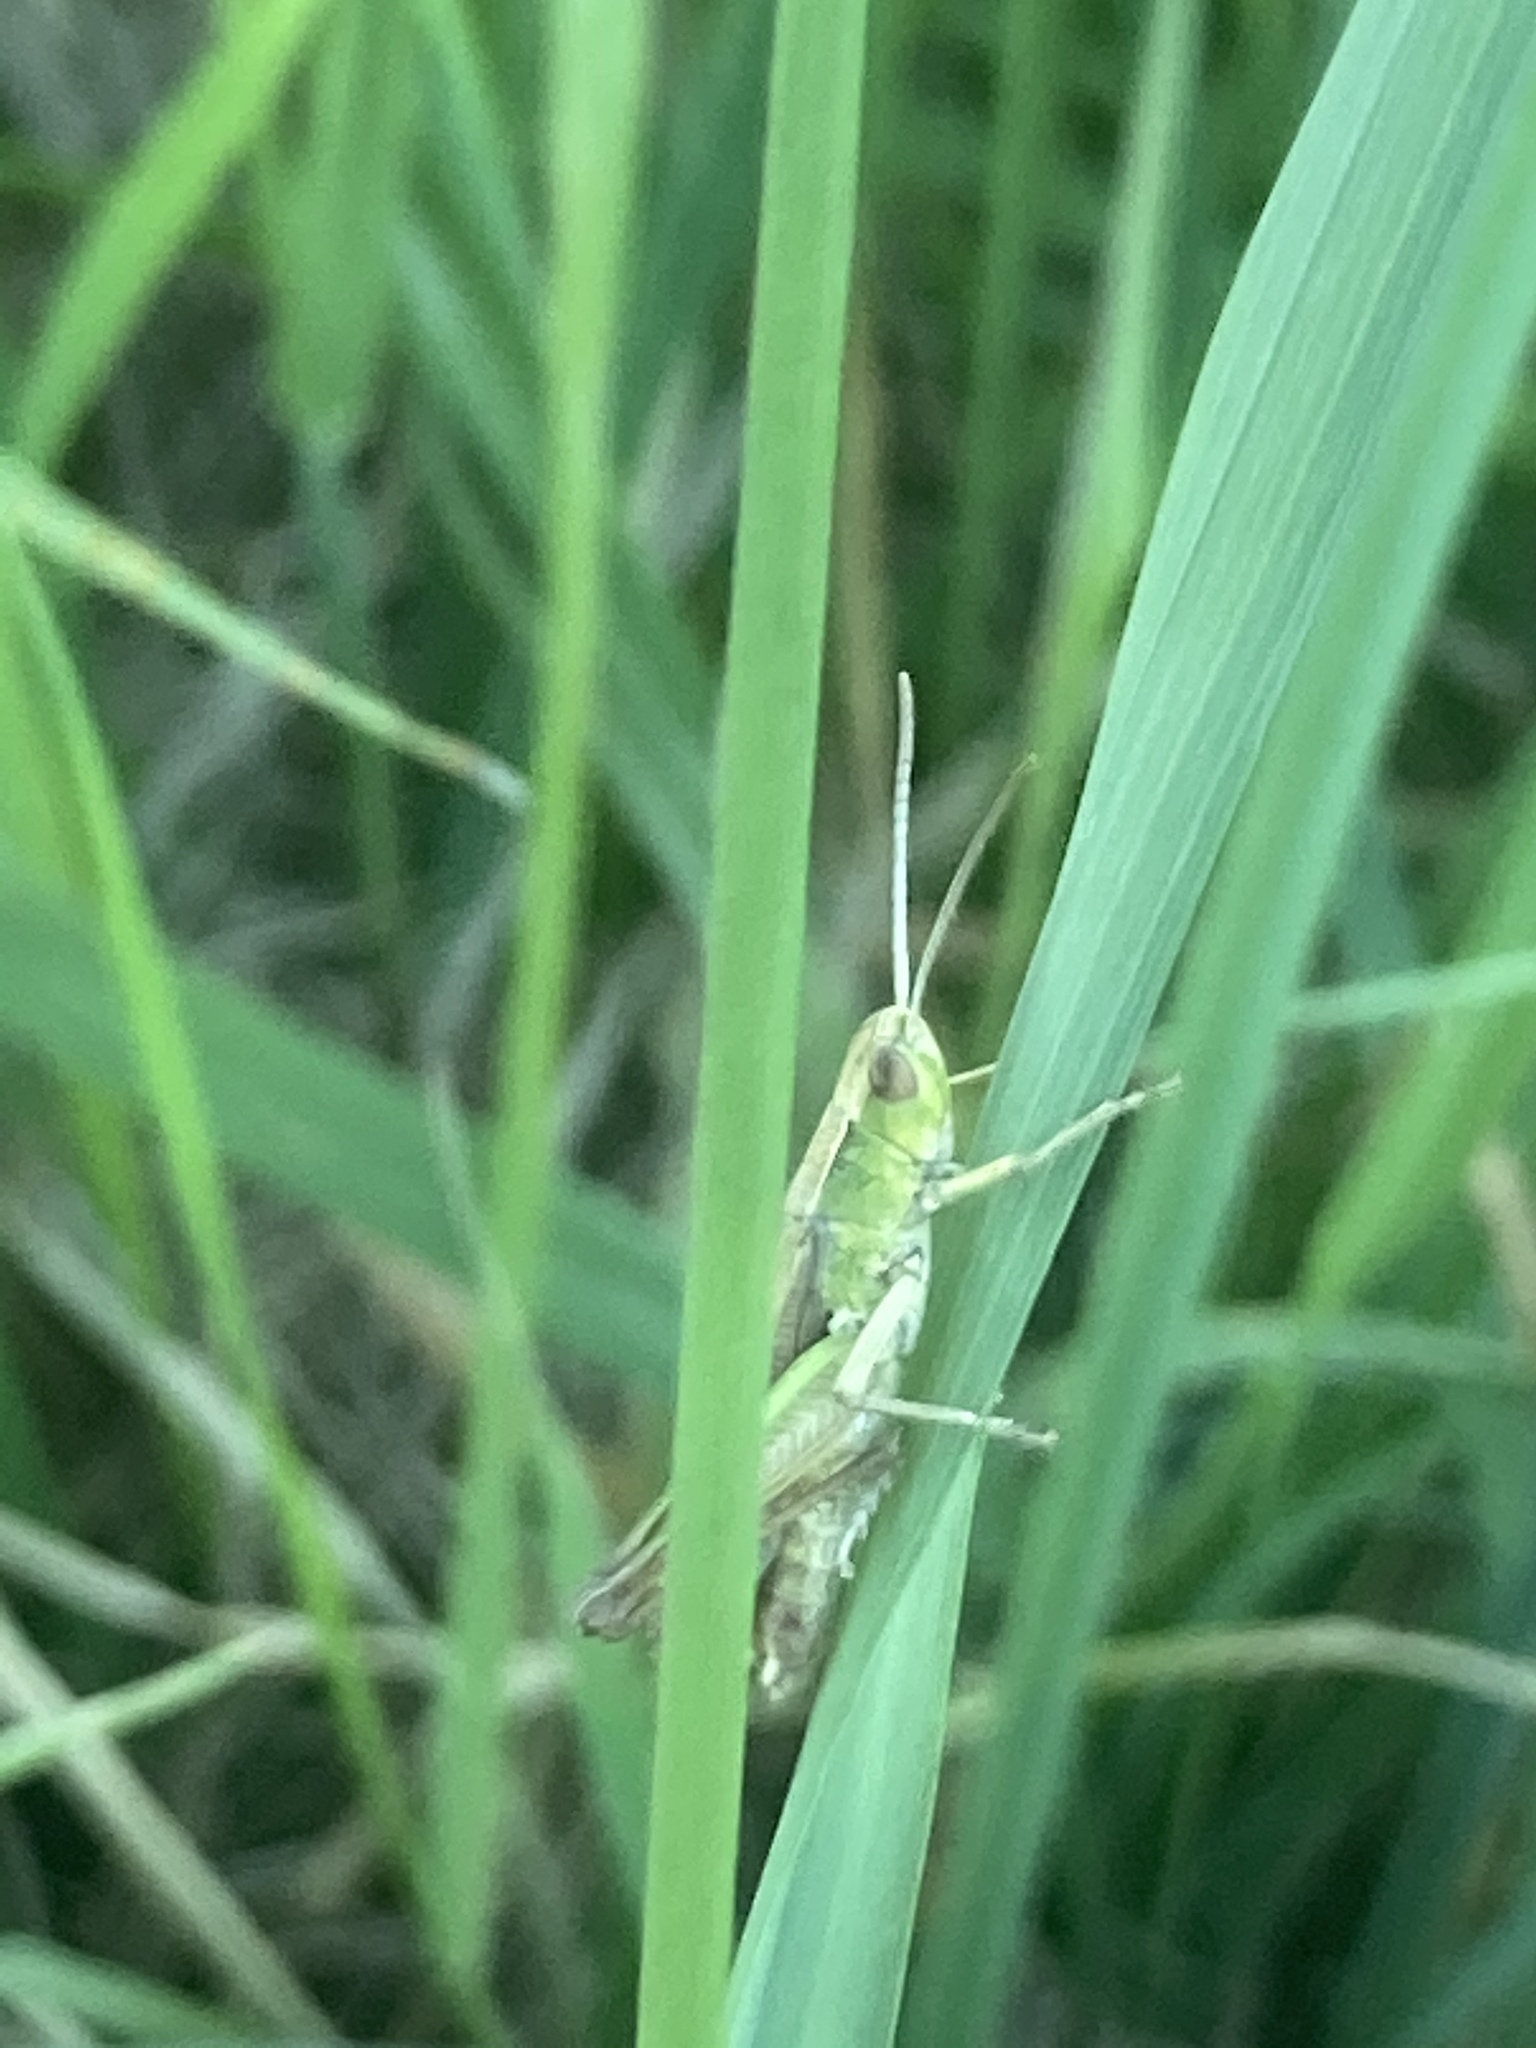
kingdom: Animalia
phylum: Arthropoda
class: Insecta
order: Orthoptera
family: Acrididae
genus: Chorthippus
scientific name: Chorthippus albomarginatus
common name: Lesser marsh grasshopper
